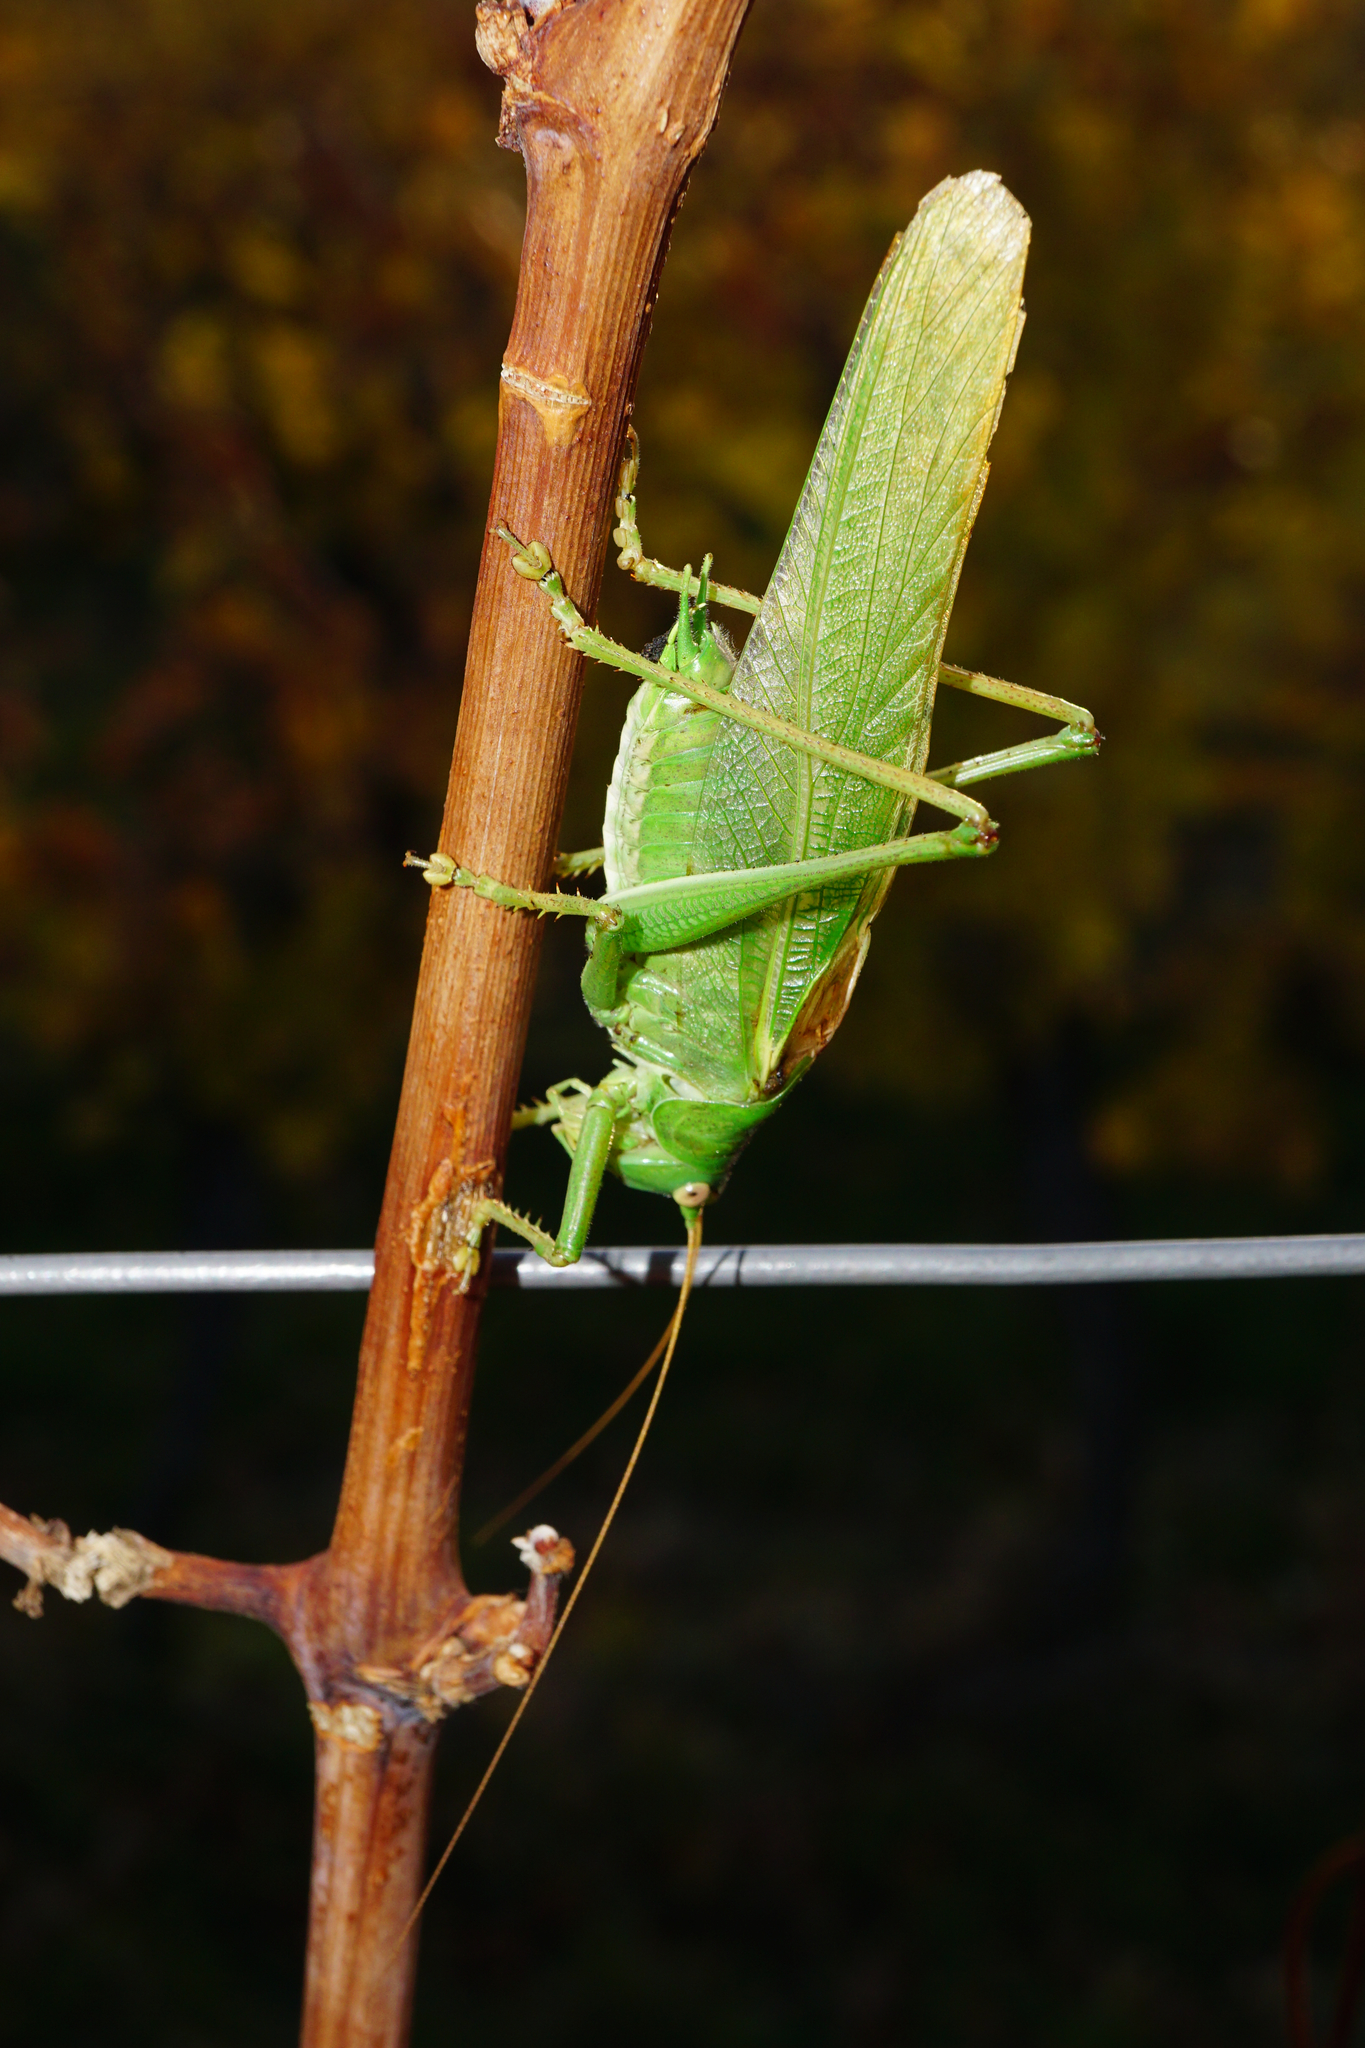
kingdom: Animalia
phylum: Arthropoda
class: Insecta
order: Orthoptera
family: Tettigoniidae
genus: Tettigonia
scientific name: Tettigonia viridissima
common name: Great green bush-cricket
